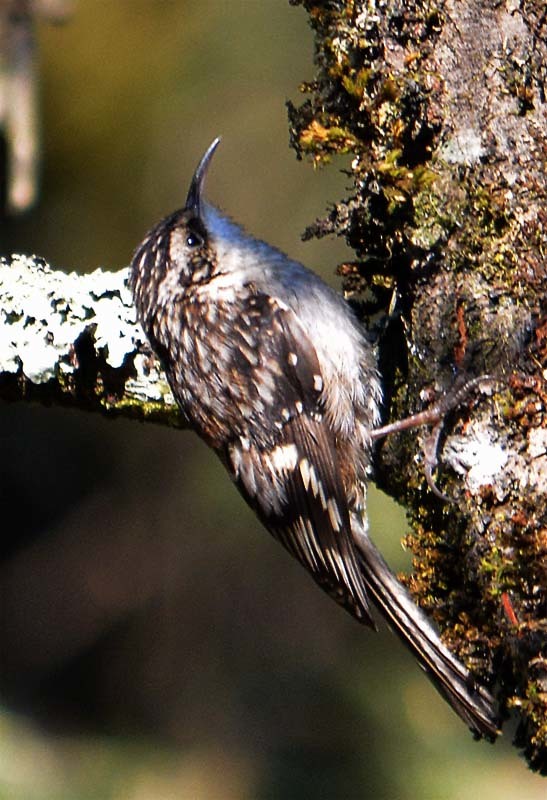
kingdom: Animalia
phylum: Chordata
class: Aves
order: Passeriformes
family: Certhiidae
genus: Certhia
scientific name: Certhia americana
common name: Brown creeper
